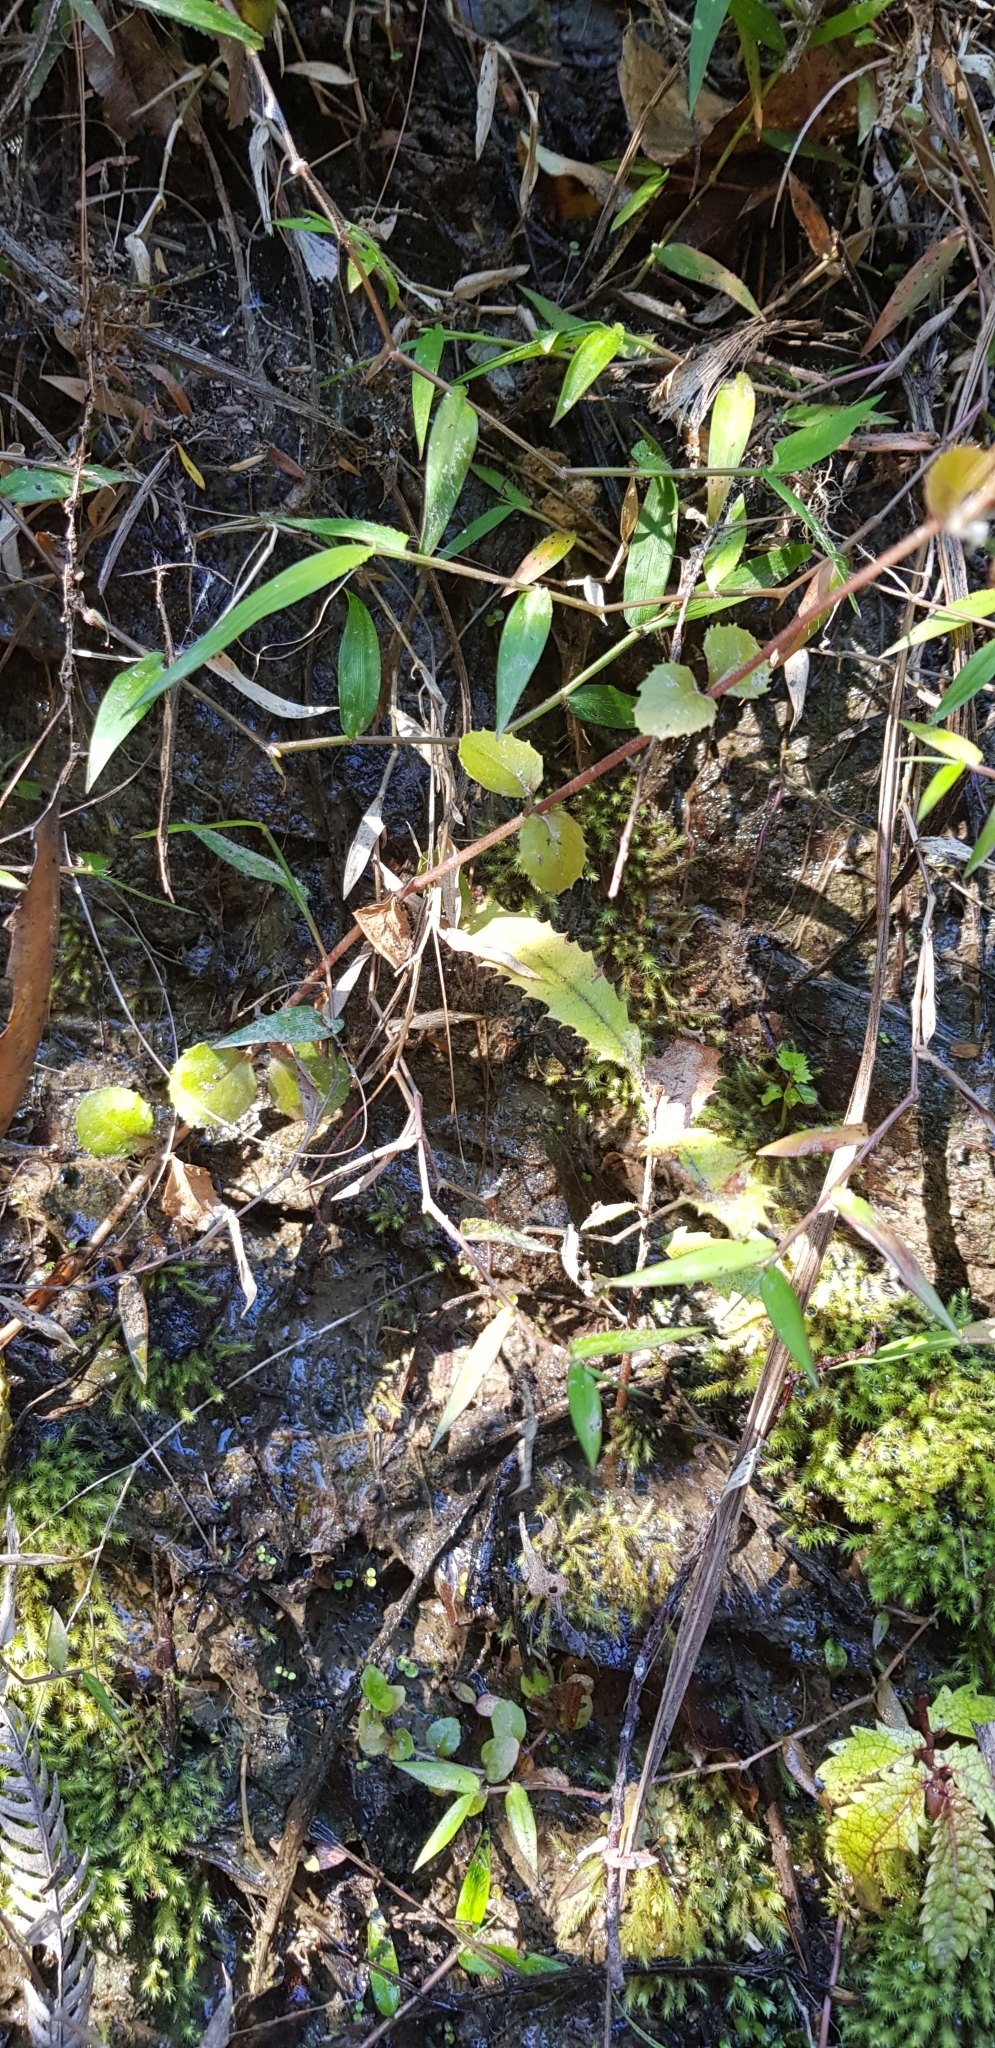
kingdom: Plantae
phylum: Tracheophyta
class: Magnoliopsida
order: Myrtales
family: Onagraceae
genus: Epilobium
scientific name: Epilobium rotundifolium
